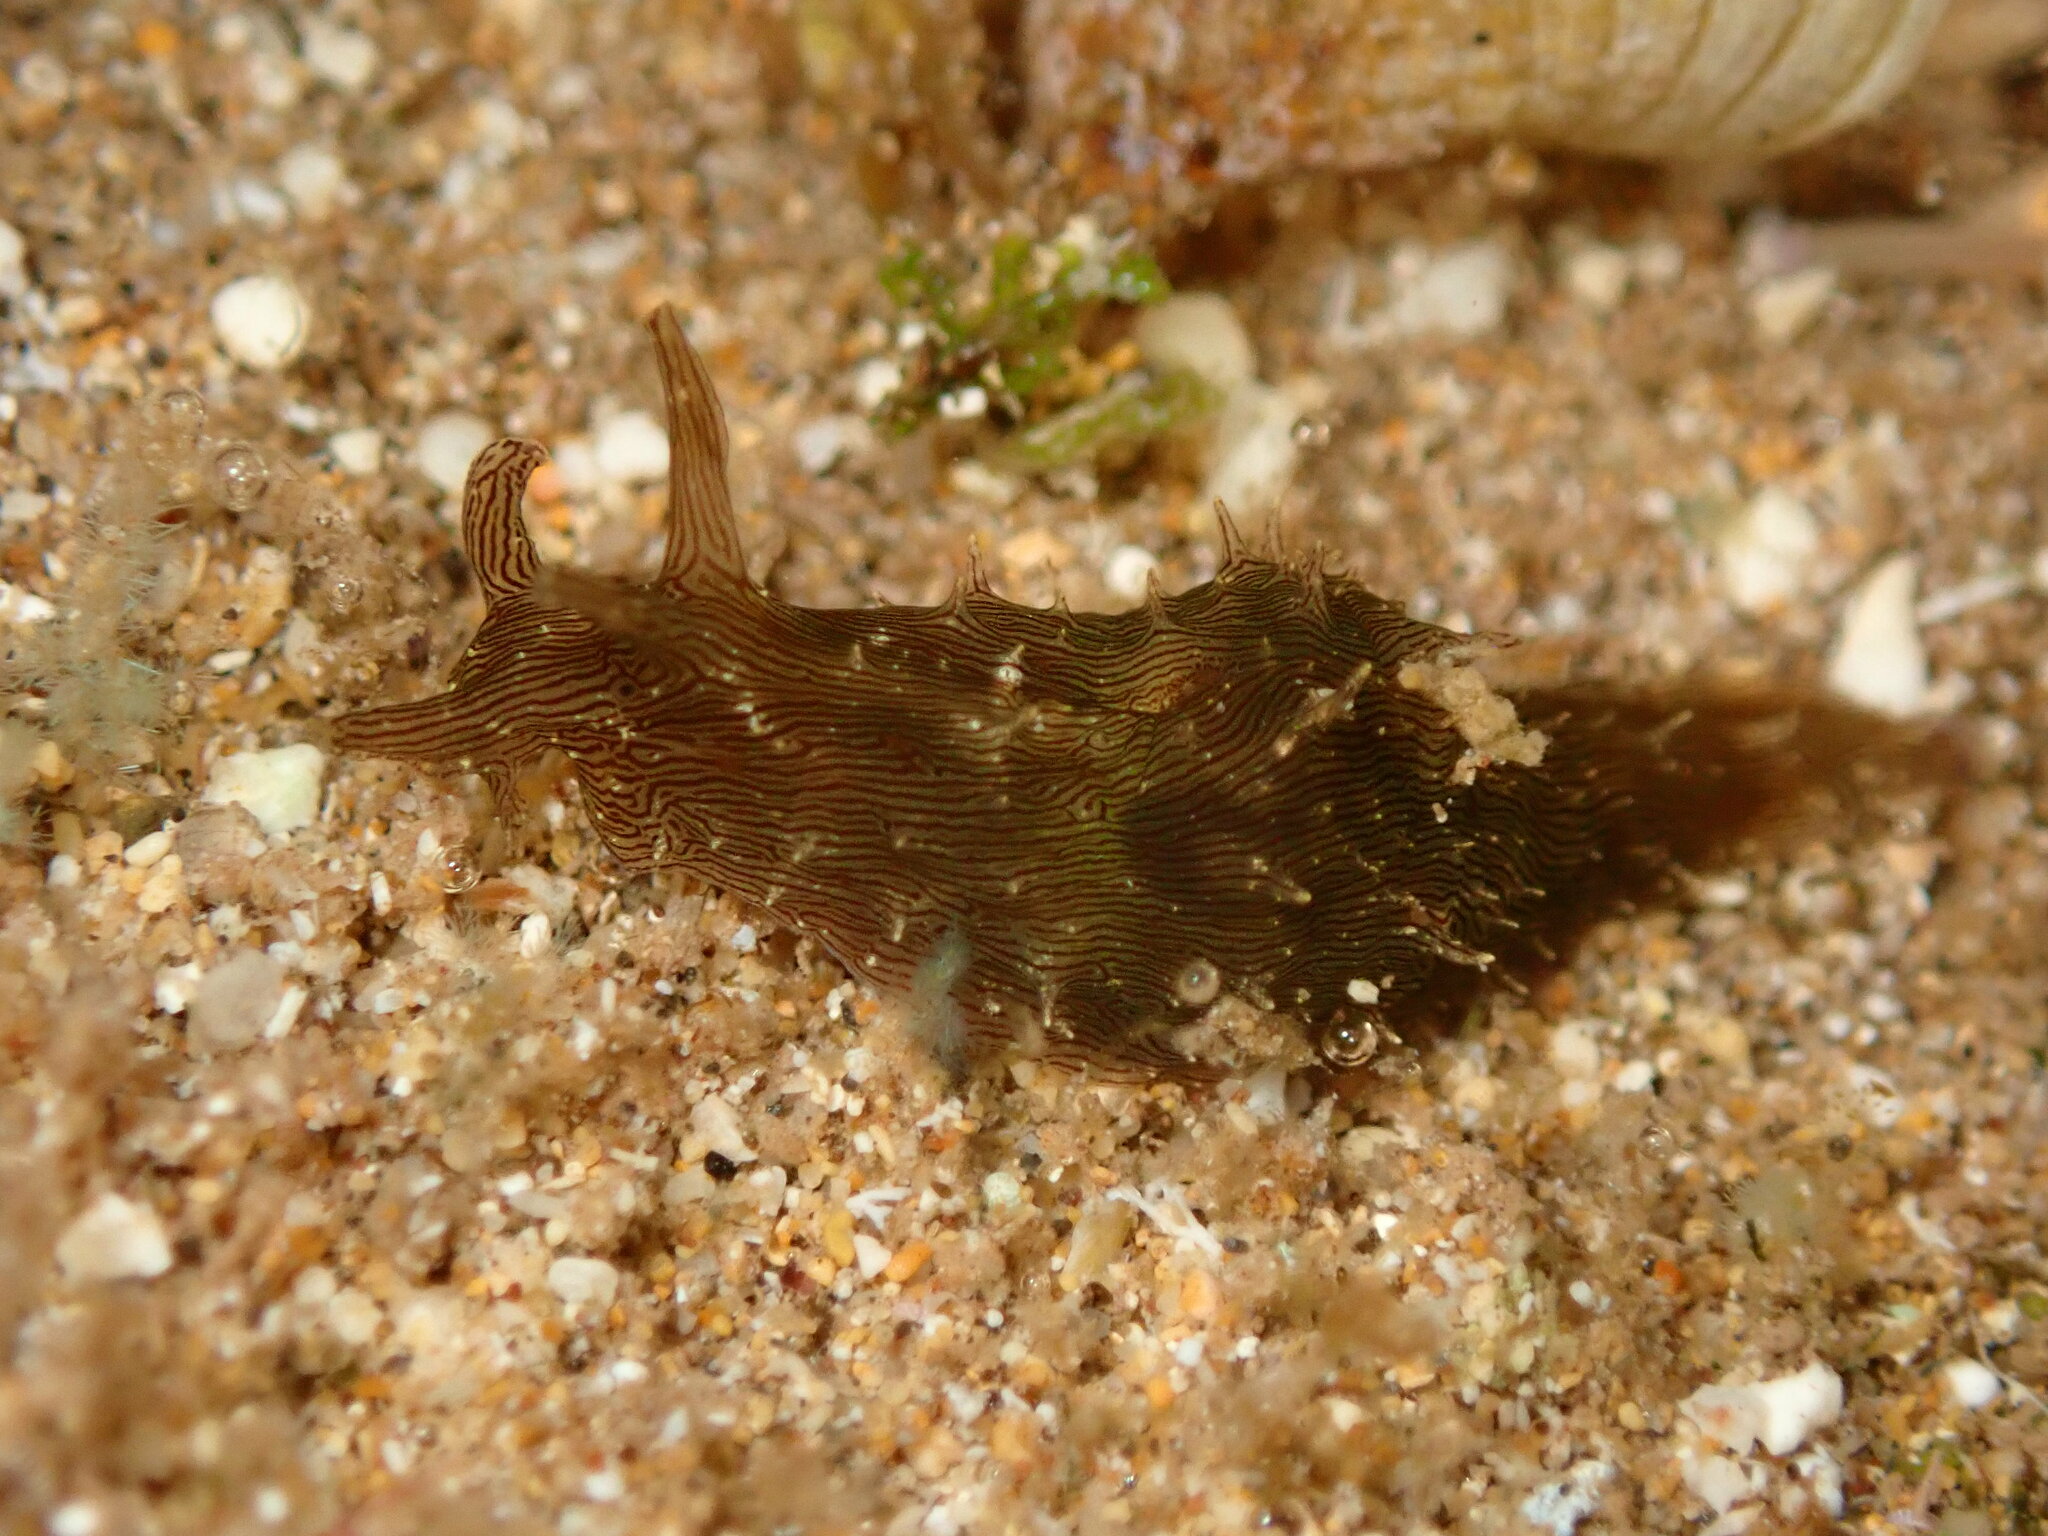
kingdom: Animalia
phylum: Mollusca
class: Gastropoda
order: Aplysiida
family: Aplysiidae
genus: Stylocheilus
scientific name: Stylocheilus striatus
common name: Striated seahare
